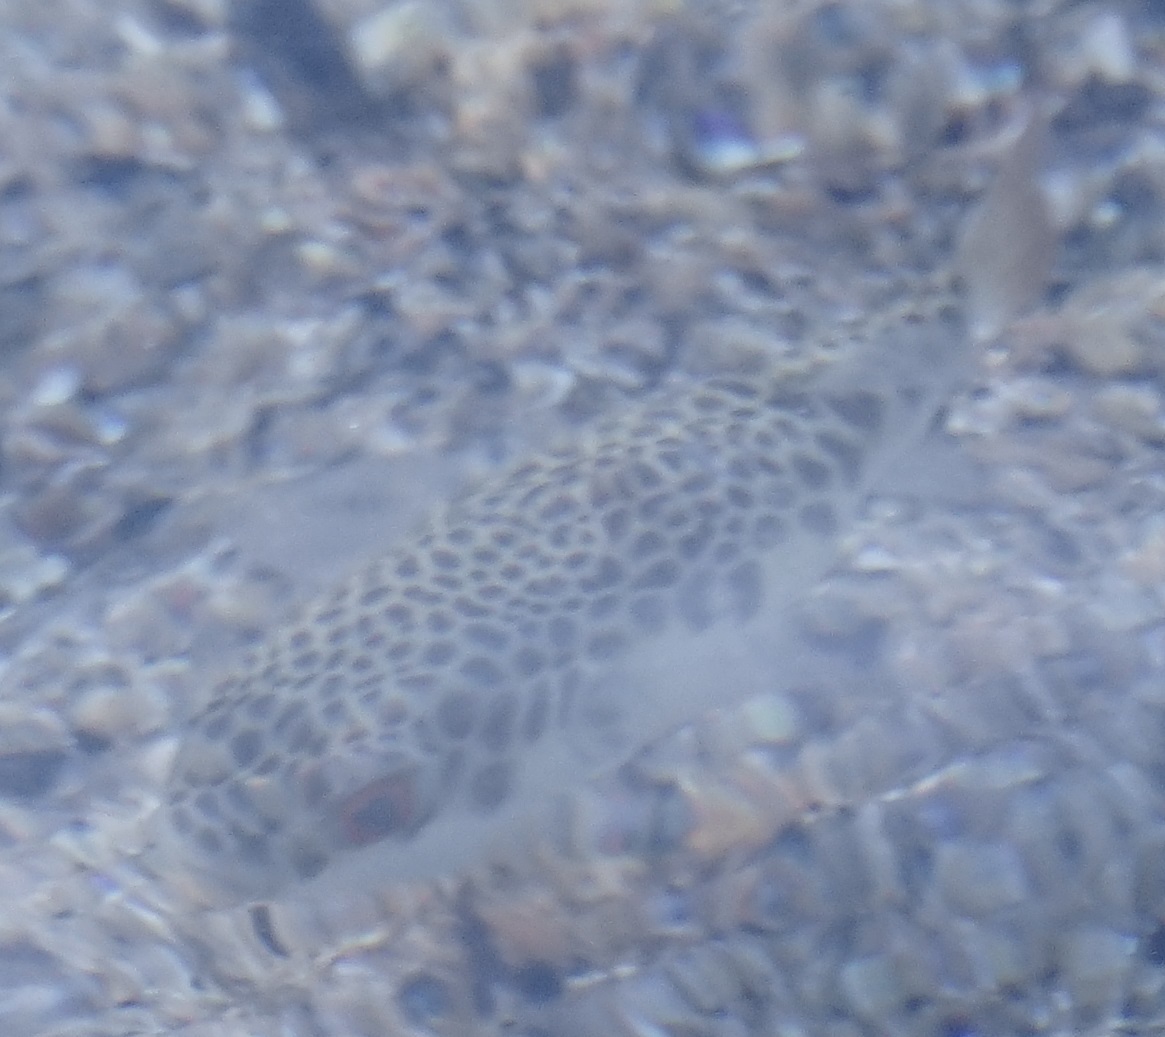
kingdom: Animalia
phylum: Chordata
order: Tetraodontiformes
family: Tetraodontidae
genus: Tetractenos
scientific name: Tetractenos glaber
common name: Smooth toadfish
